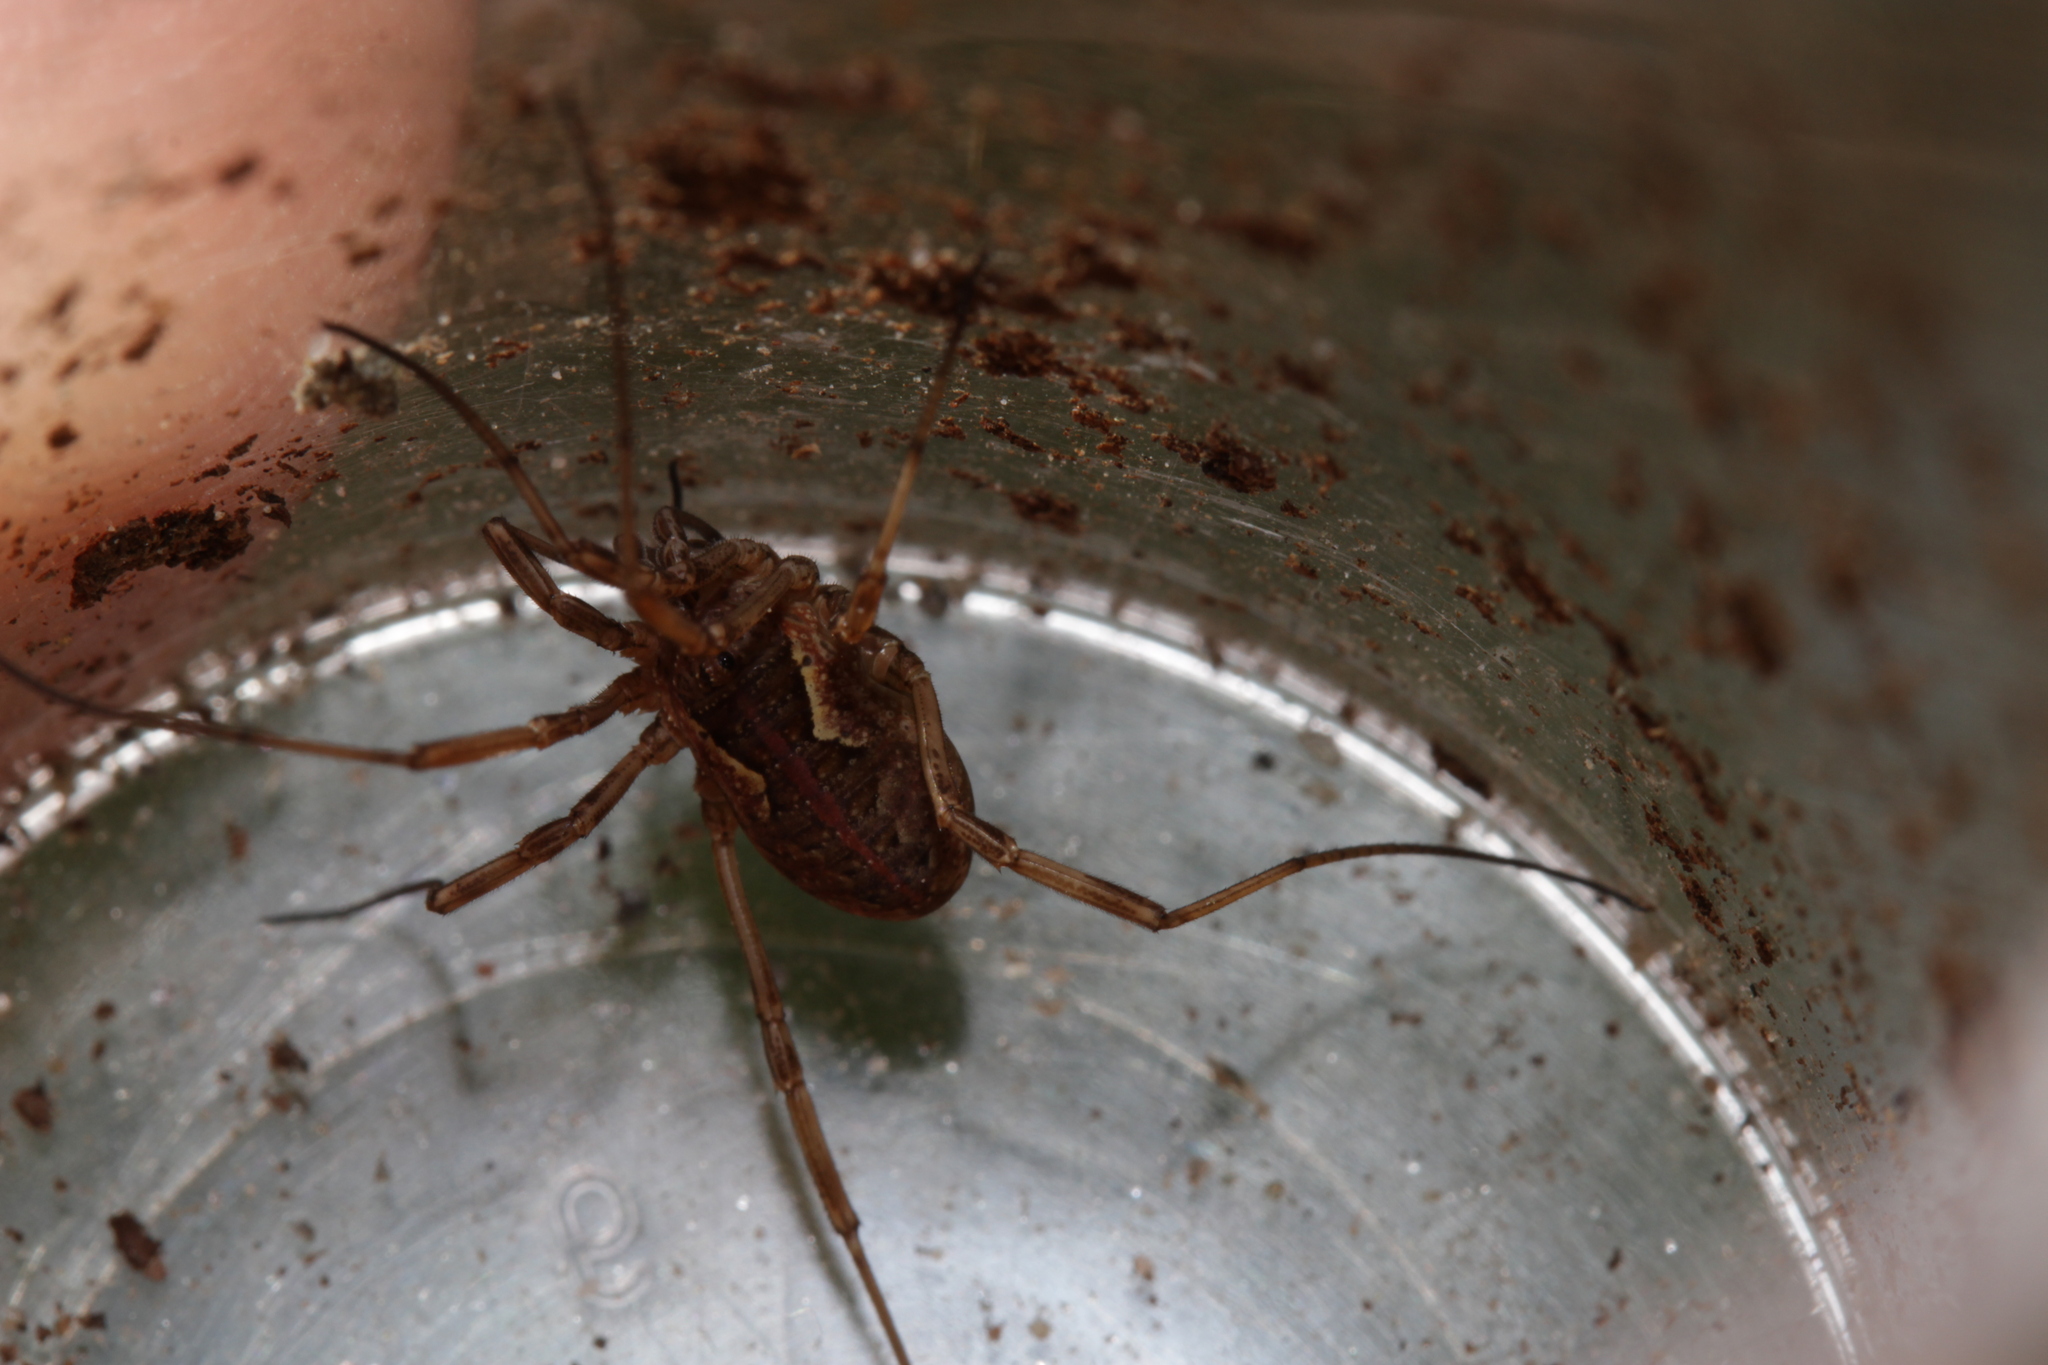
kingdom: Animalia
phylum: Arthropoda
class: Arachnida
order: Opiliones
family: Phalangiidae
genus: Mitopus
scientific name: Mitopus morio
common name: Saddleback harvestman
